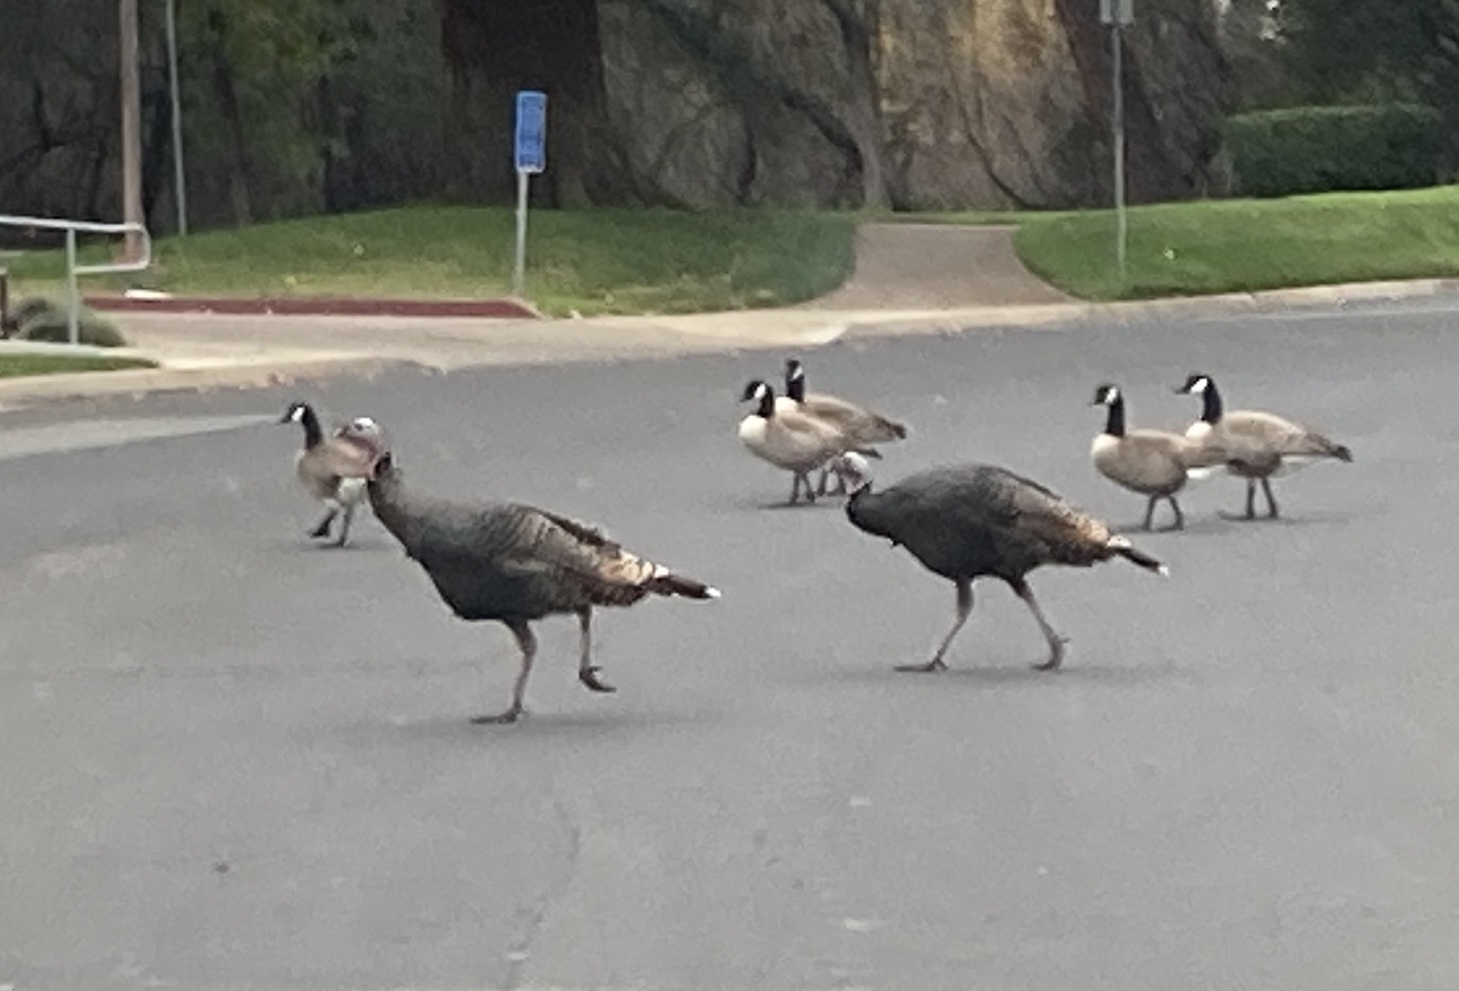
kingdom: Animalia
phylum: Chordata
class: Aves
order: Anseriformes
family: Anatidae
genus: Branta
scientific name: Branta canadensis
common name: Canada goose
